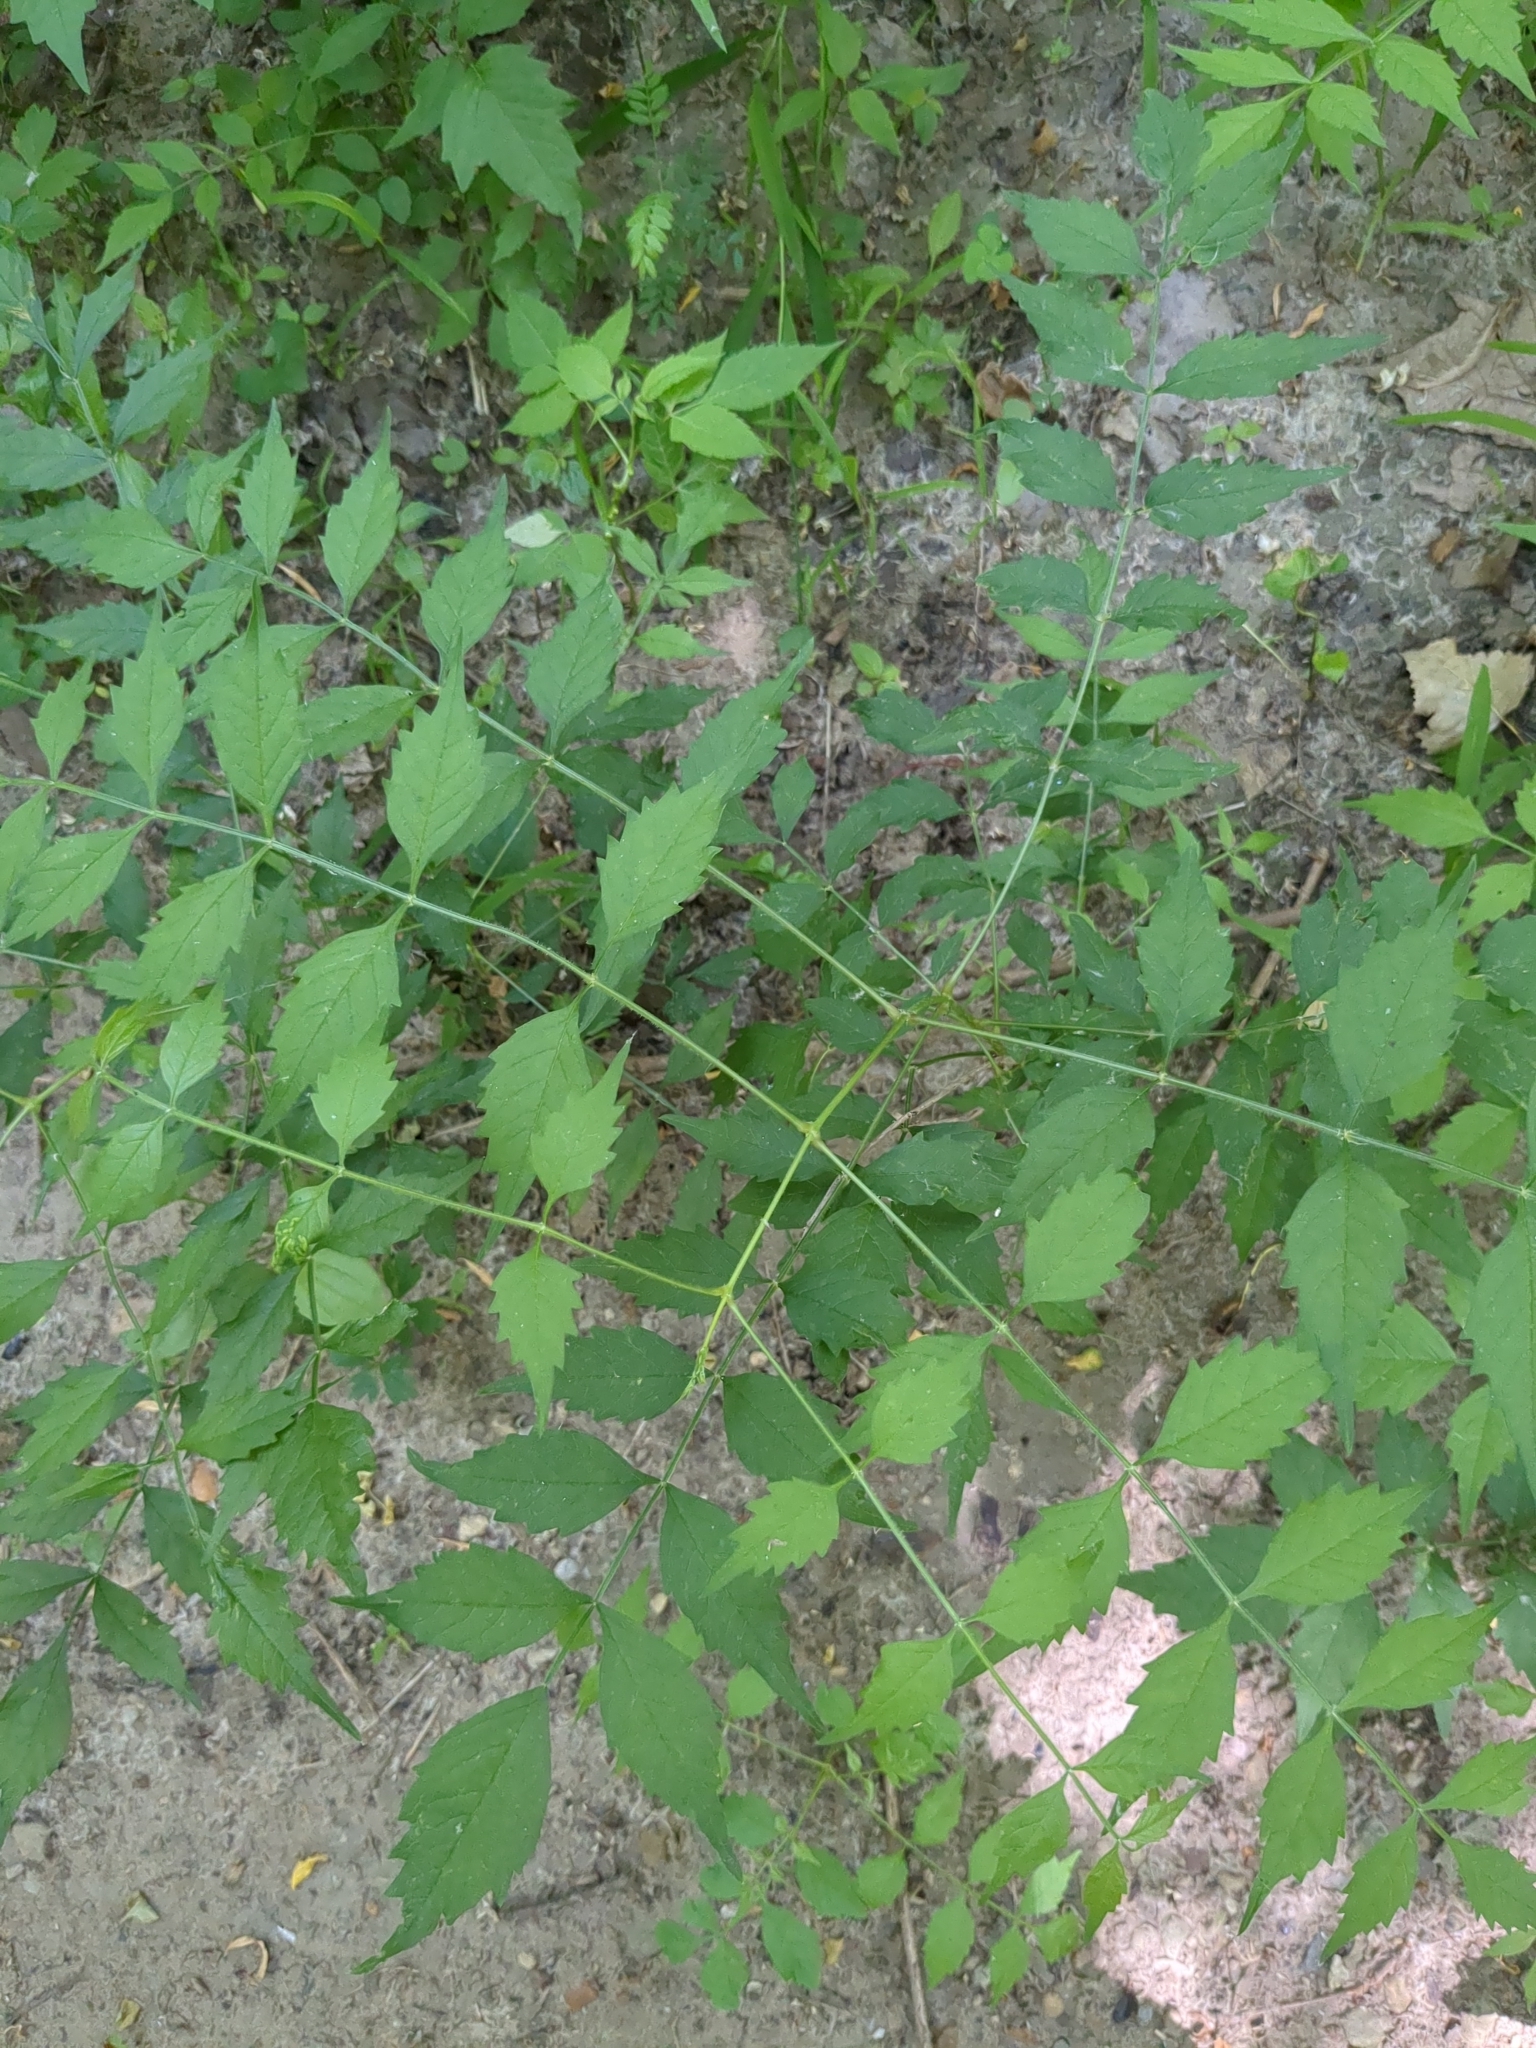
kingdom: Plantae
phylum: Tracheophyta
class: Magnoliopsida
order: Lamiales
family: Bignoniaceae
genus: Campsis
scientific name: Campsis radicans
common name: Trumpet-creeper
